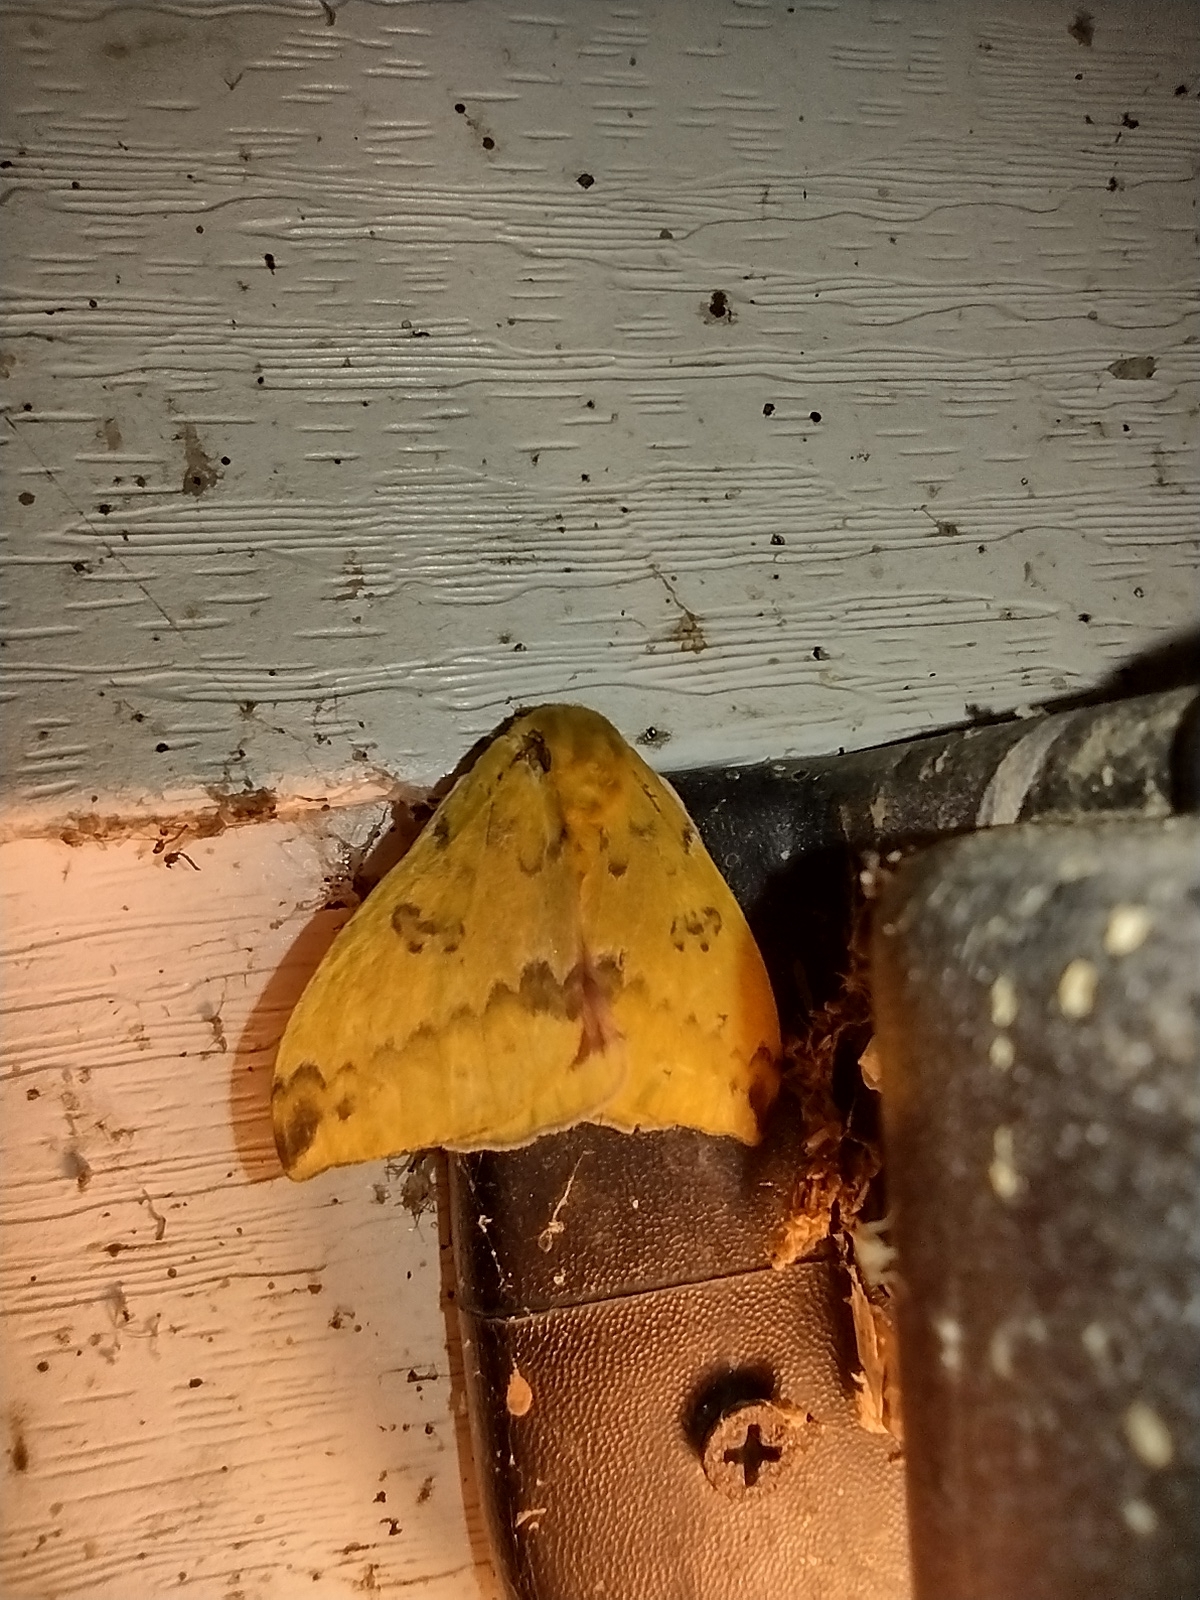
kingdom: Animalia
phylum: Arthropoda
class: Insecta
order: Lepidoptera
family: Saturniidae
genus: Automeris
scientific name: Automeris io
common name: Io moth
